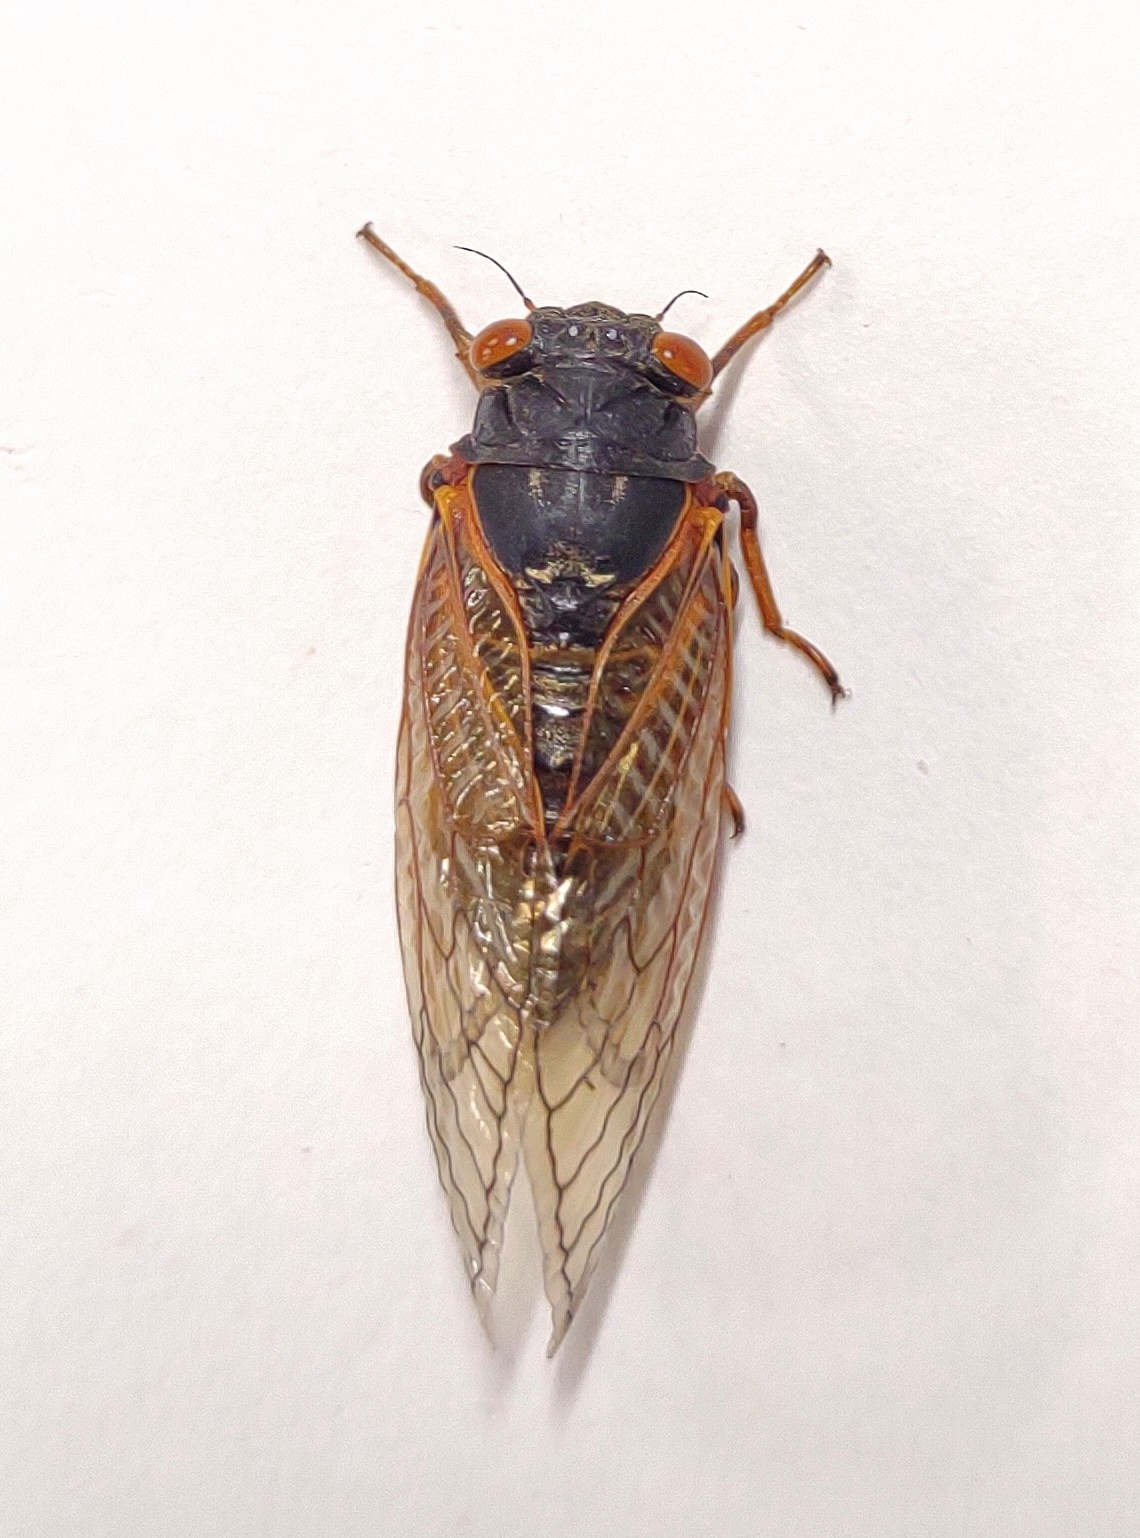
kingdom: Animalia
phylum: Arthropoda
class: Insecta
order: Hemiptera
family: Cicadidae
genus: Magicicada
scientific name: Magicicada cassini
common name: Cassin's 17-year cicada
